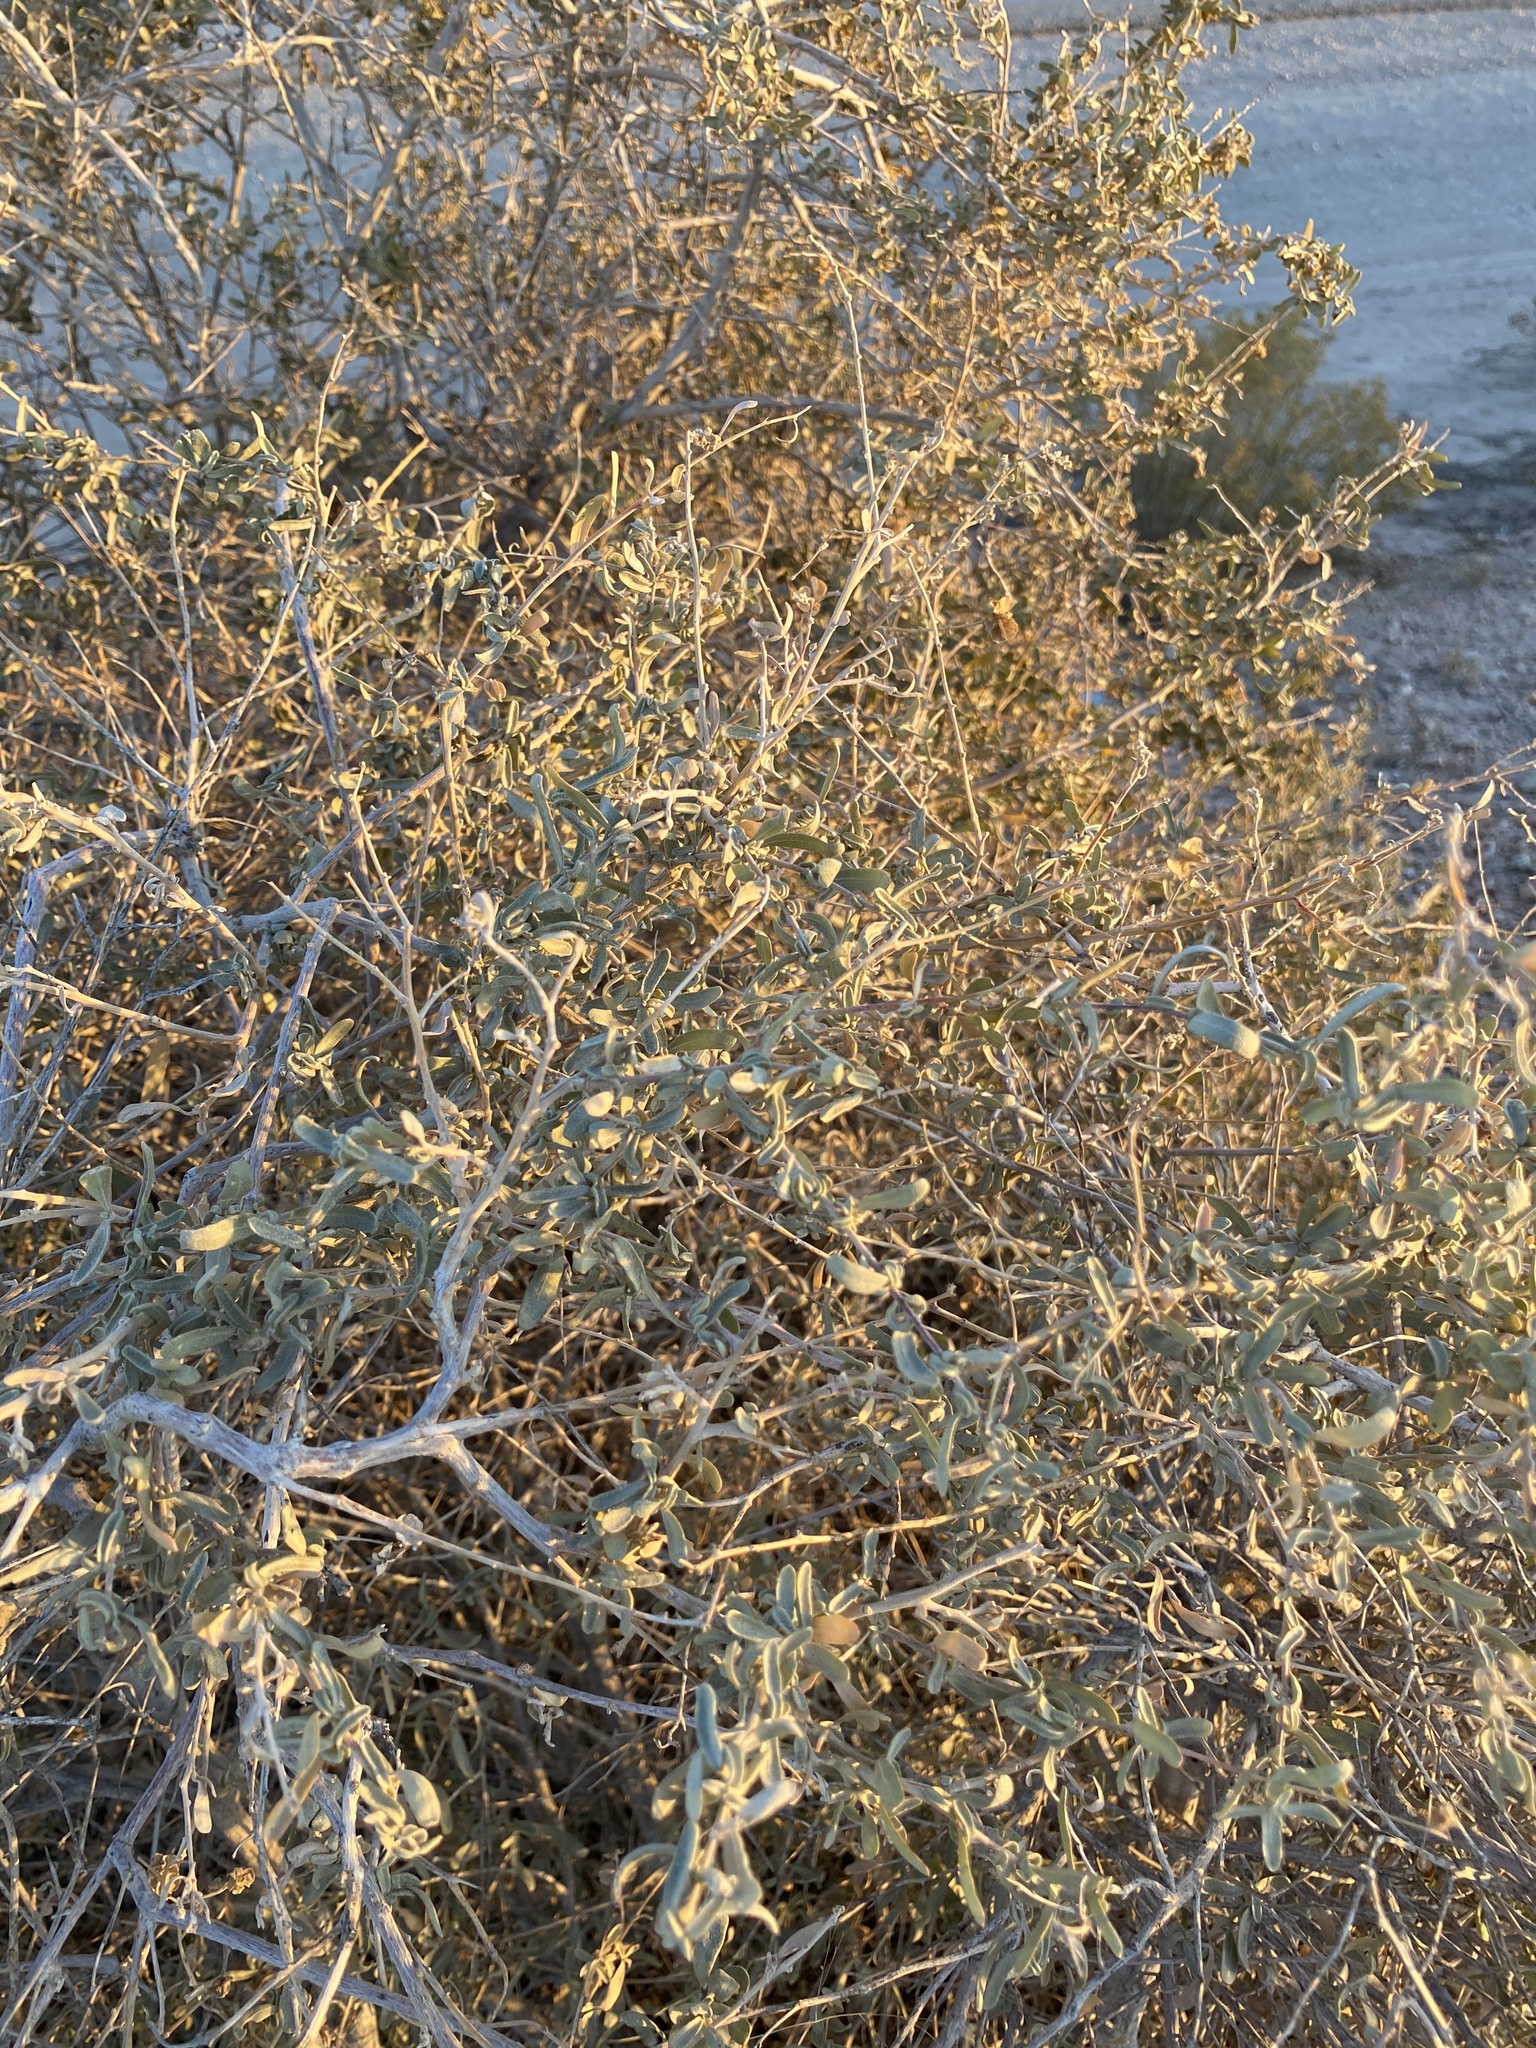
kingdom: Plantae
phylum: Tracheophyta
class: Magnoliopsida
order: Caryophyllales
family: Amaranthaceae
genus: Atriplex
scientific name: Atriplex canescens
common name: Four-wing saltbush
